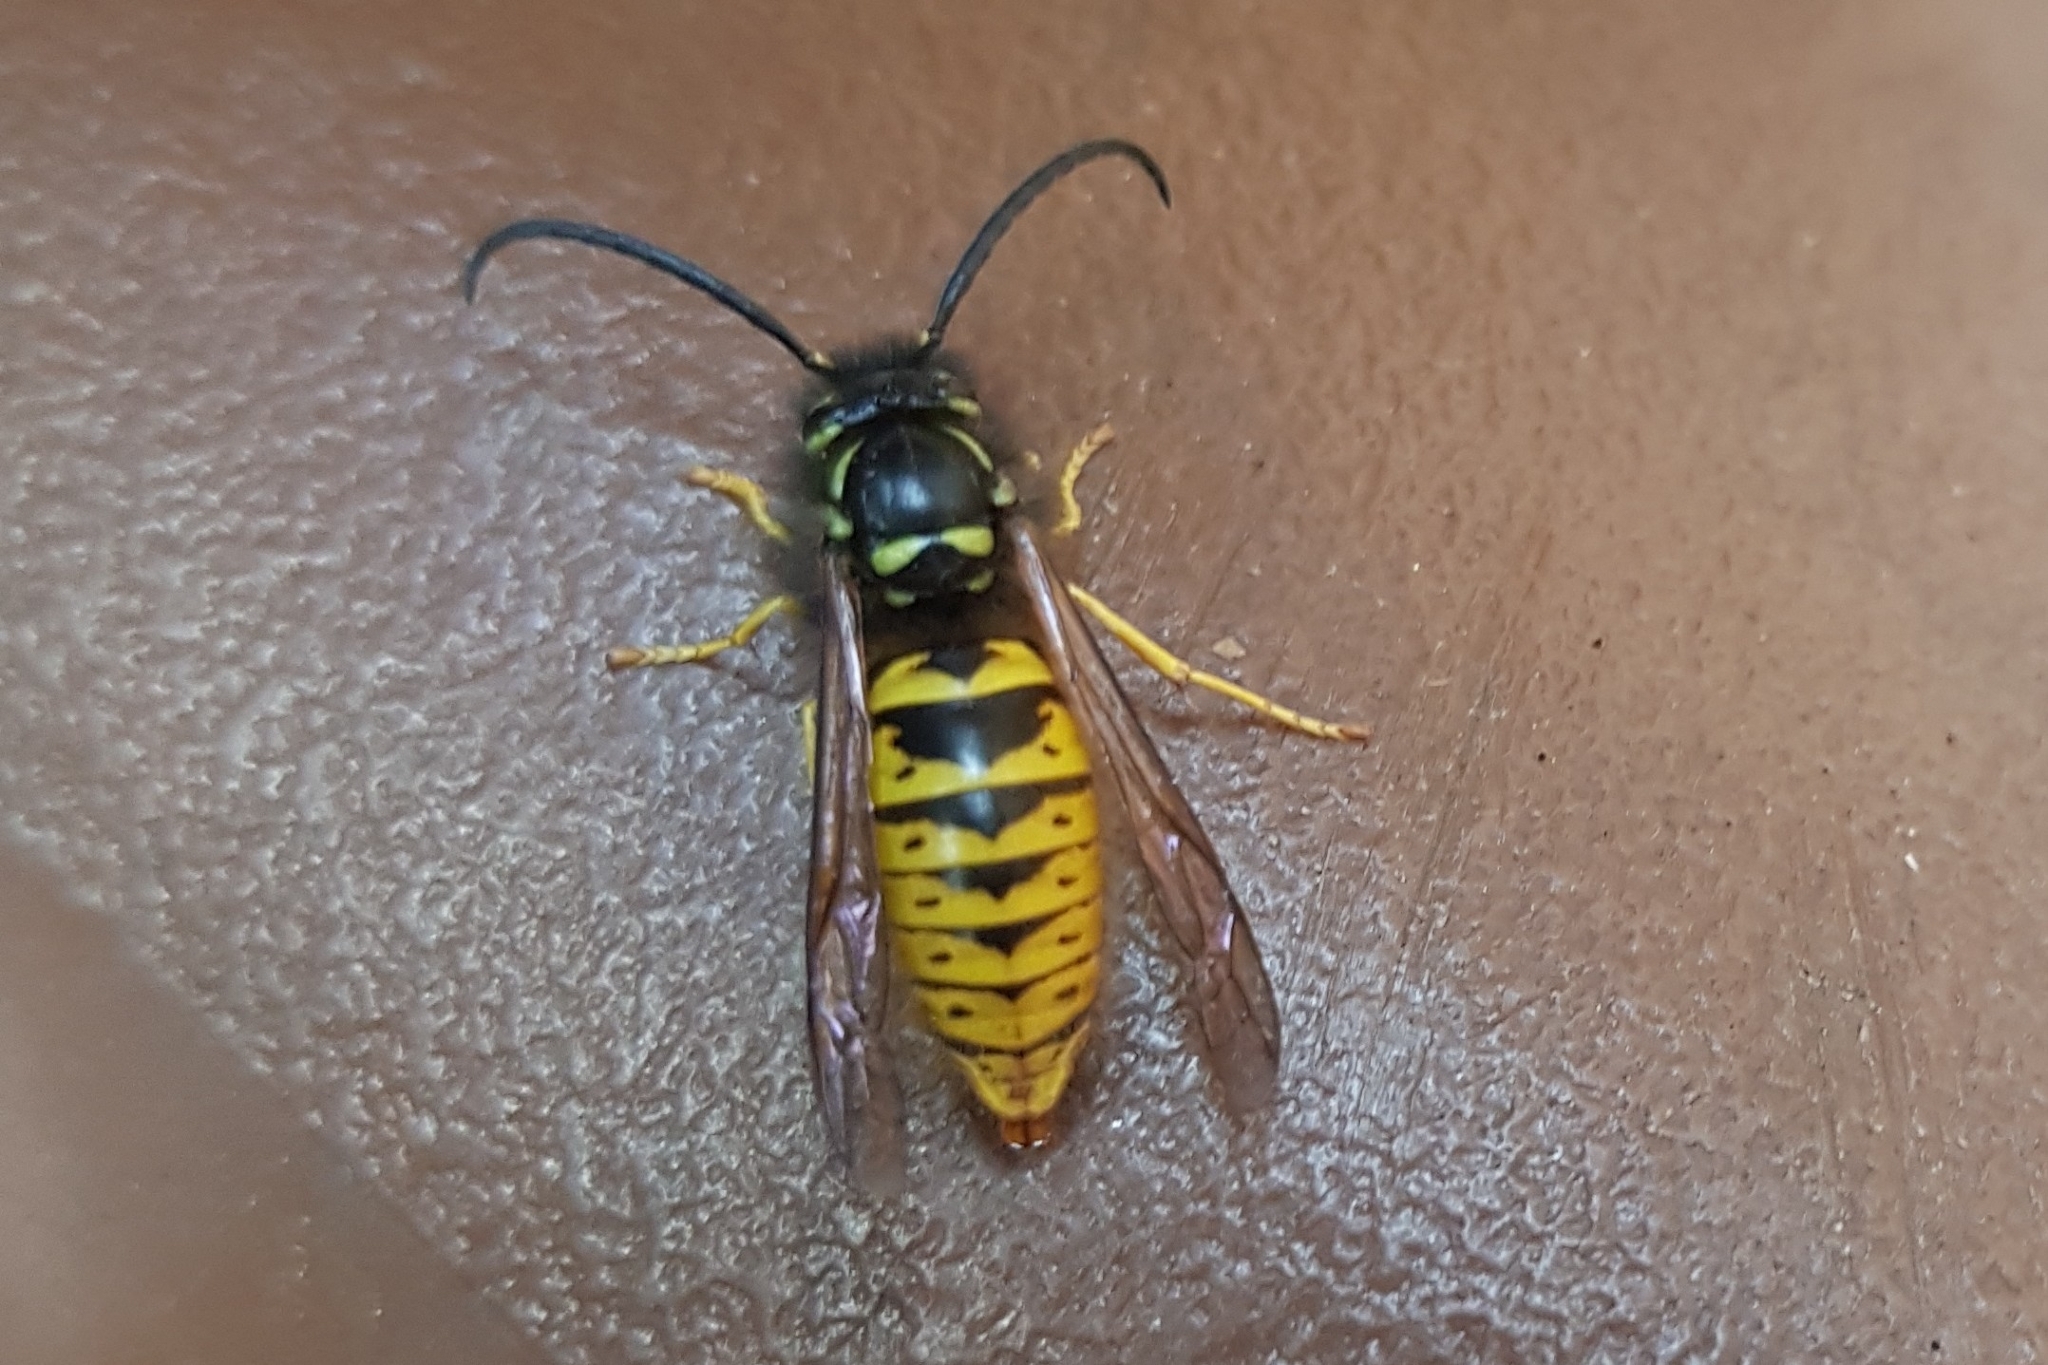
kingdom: Animalia
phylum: Arthropoda
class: Insecta
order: Hymenoptera
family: Vespidae
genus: Vespula
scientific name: Vespula vulgaris
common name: Common wasp
